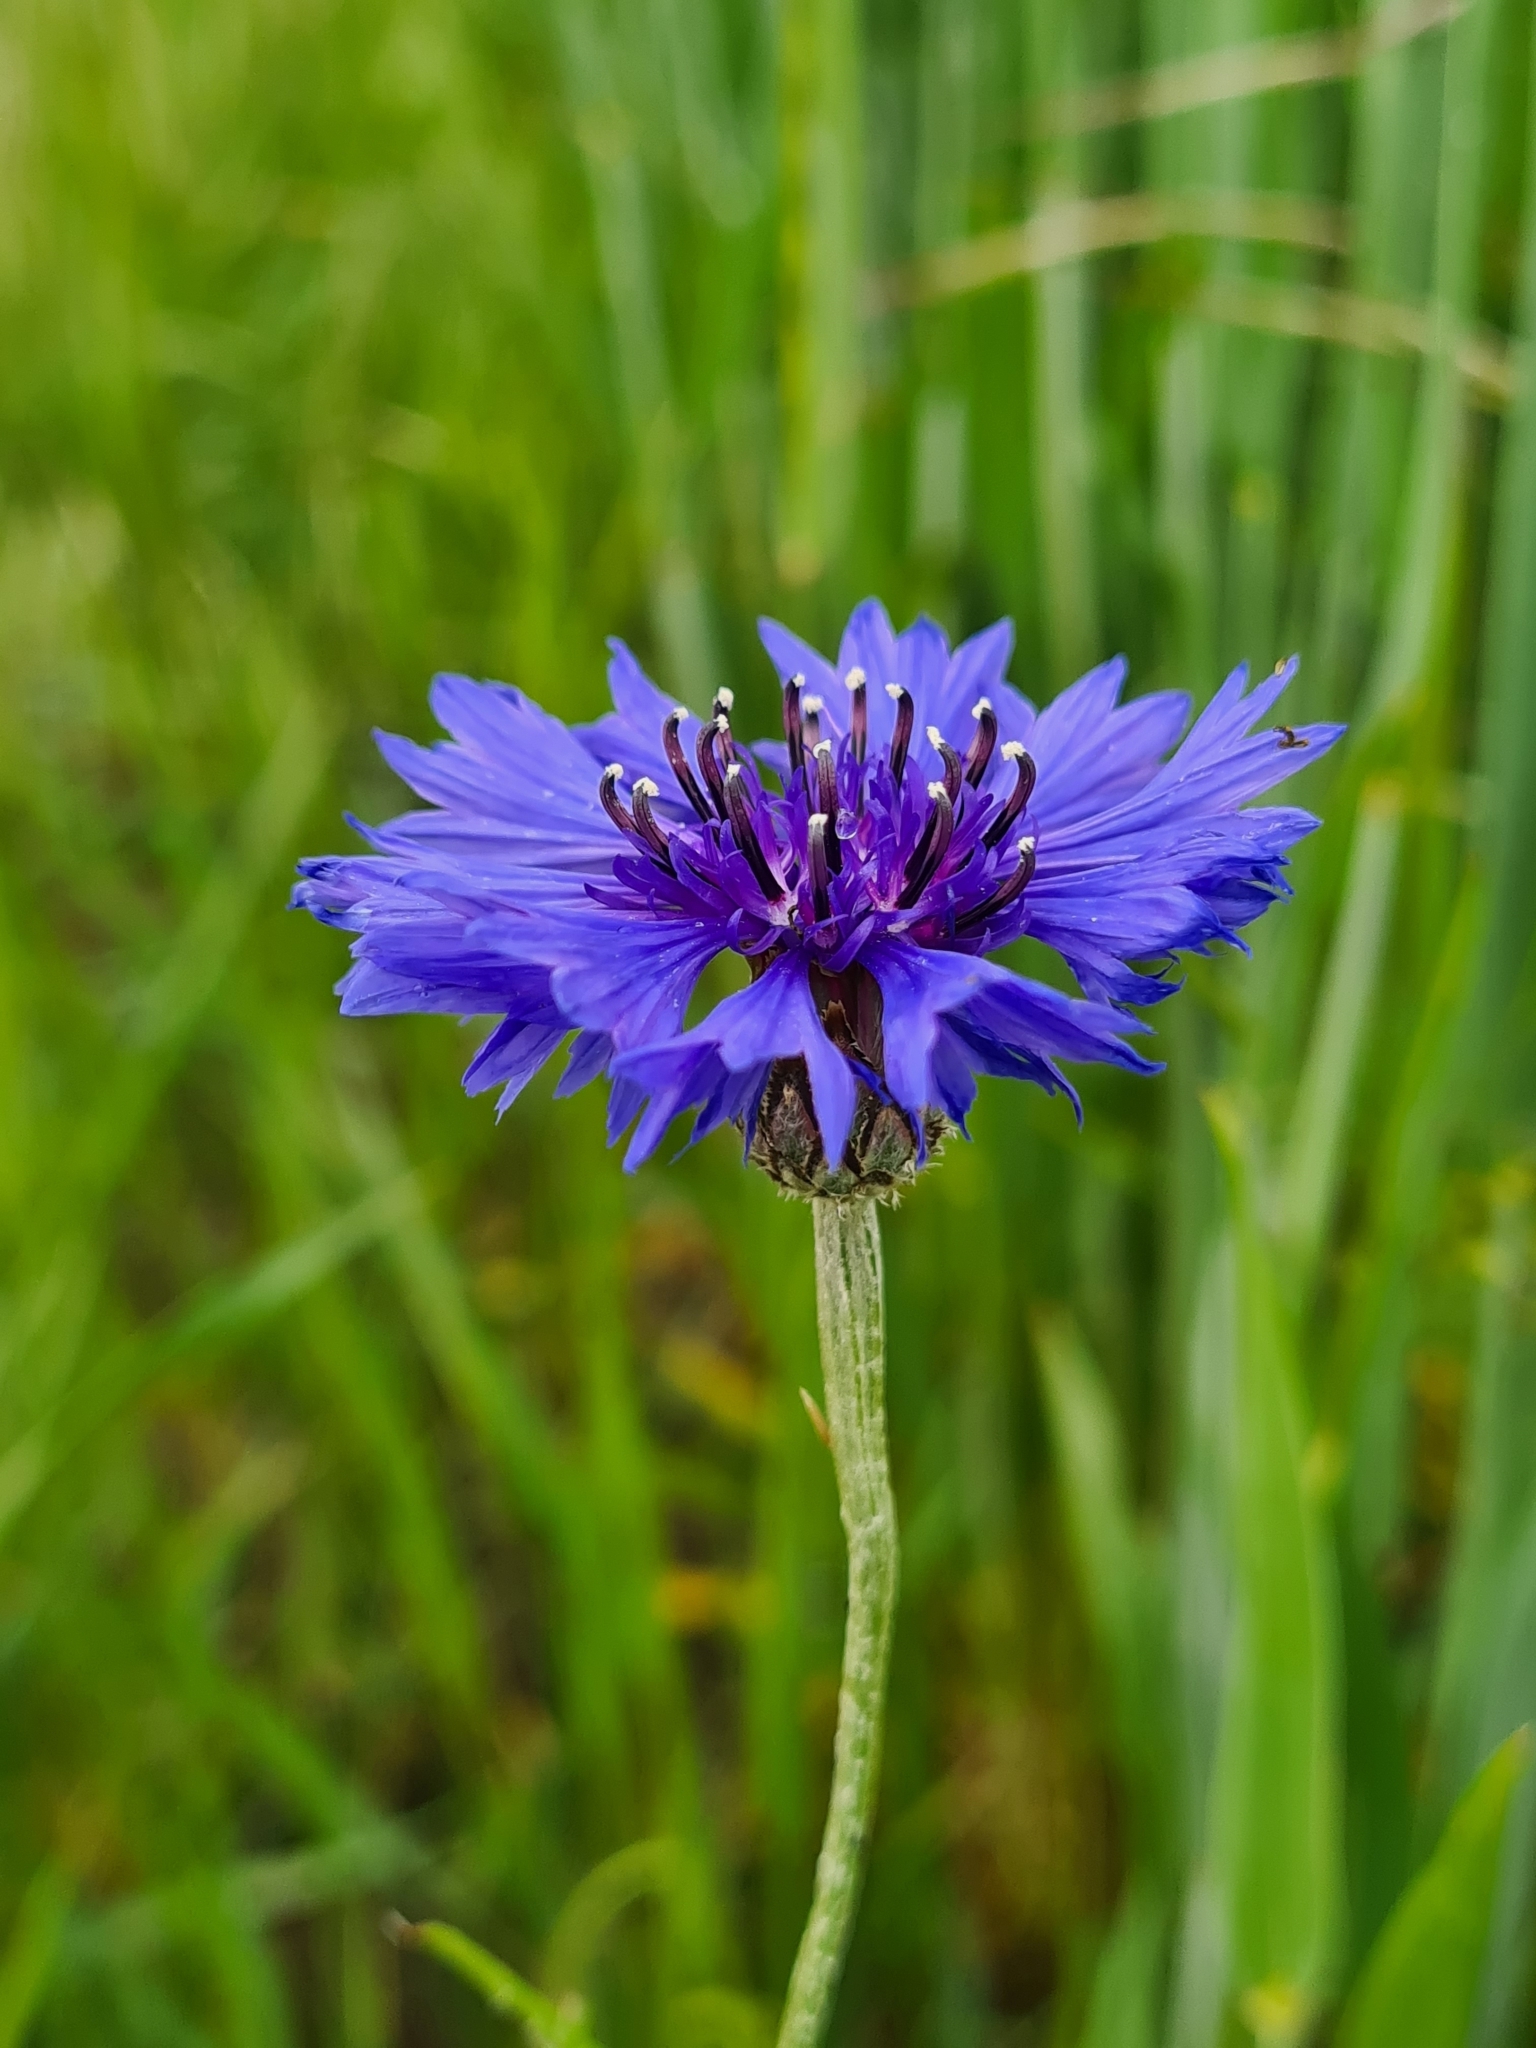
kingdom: Plantae
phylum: Tracheophyta
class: Magnoliopsida
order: Asterales
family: Asteraceae
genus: Centaurea
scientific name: Centaurea cyanus
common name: Cornflower
